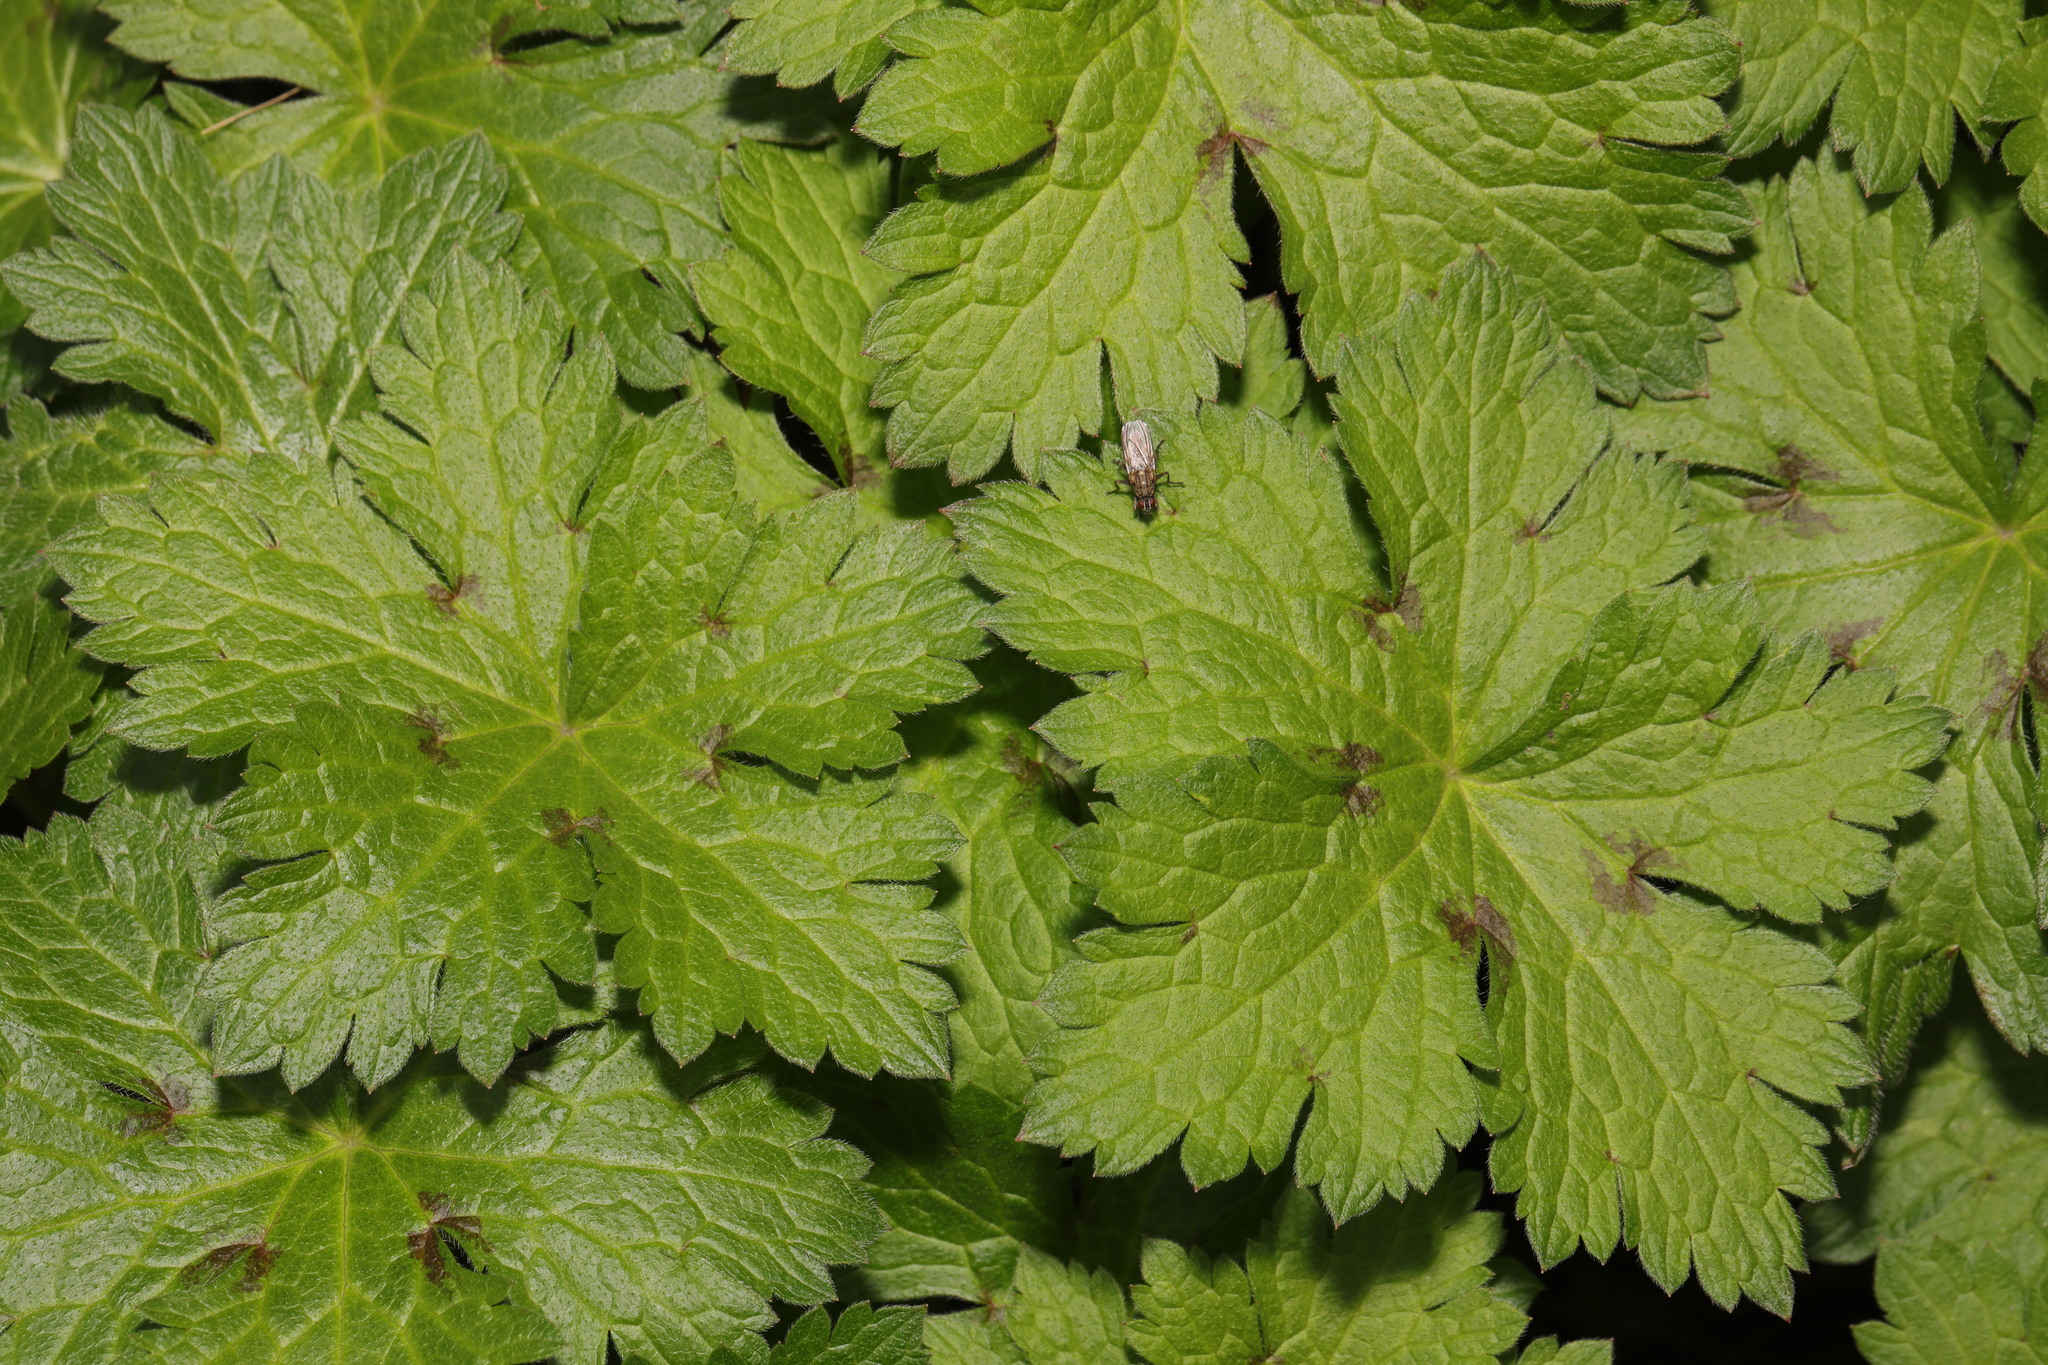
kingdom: Plantae
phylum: Tracheophyta
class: Magnoliopsida
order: Geraniales
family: Geraniaceae
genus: Geranium
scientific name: Geranium oxonianum
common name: Druce's crane's-bill
